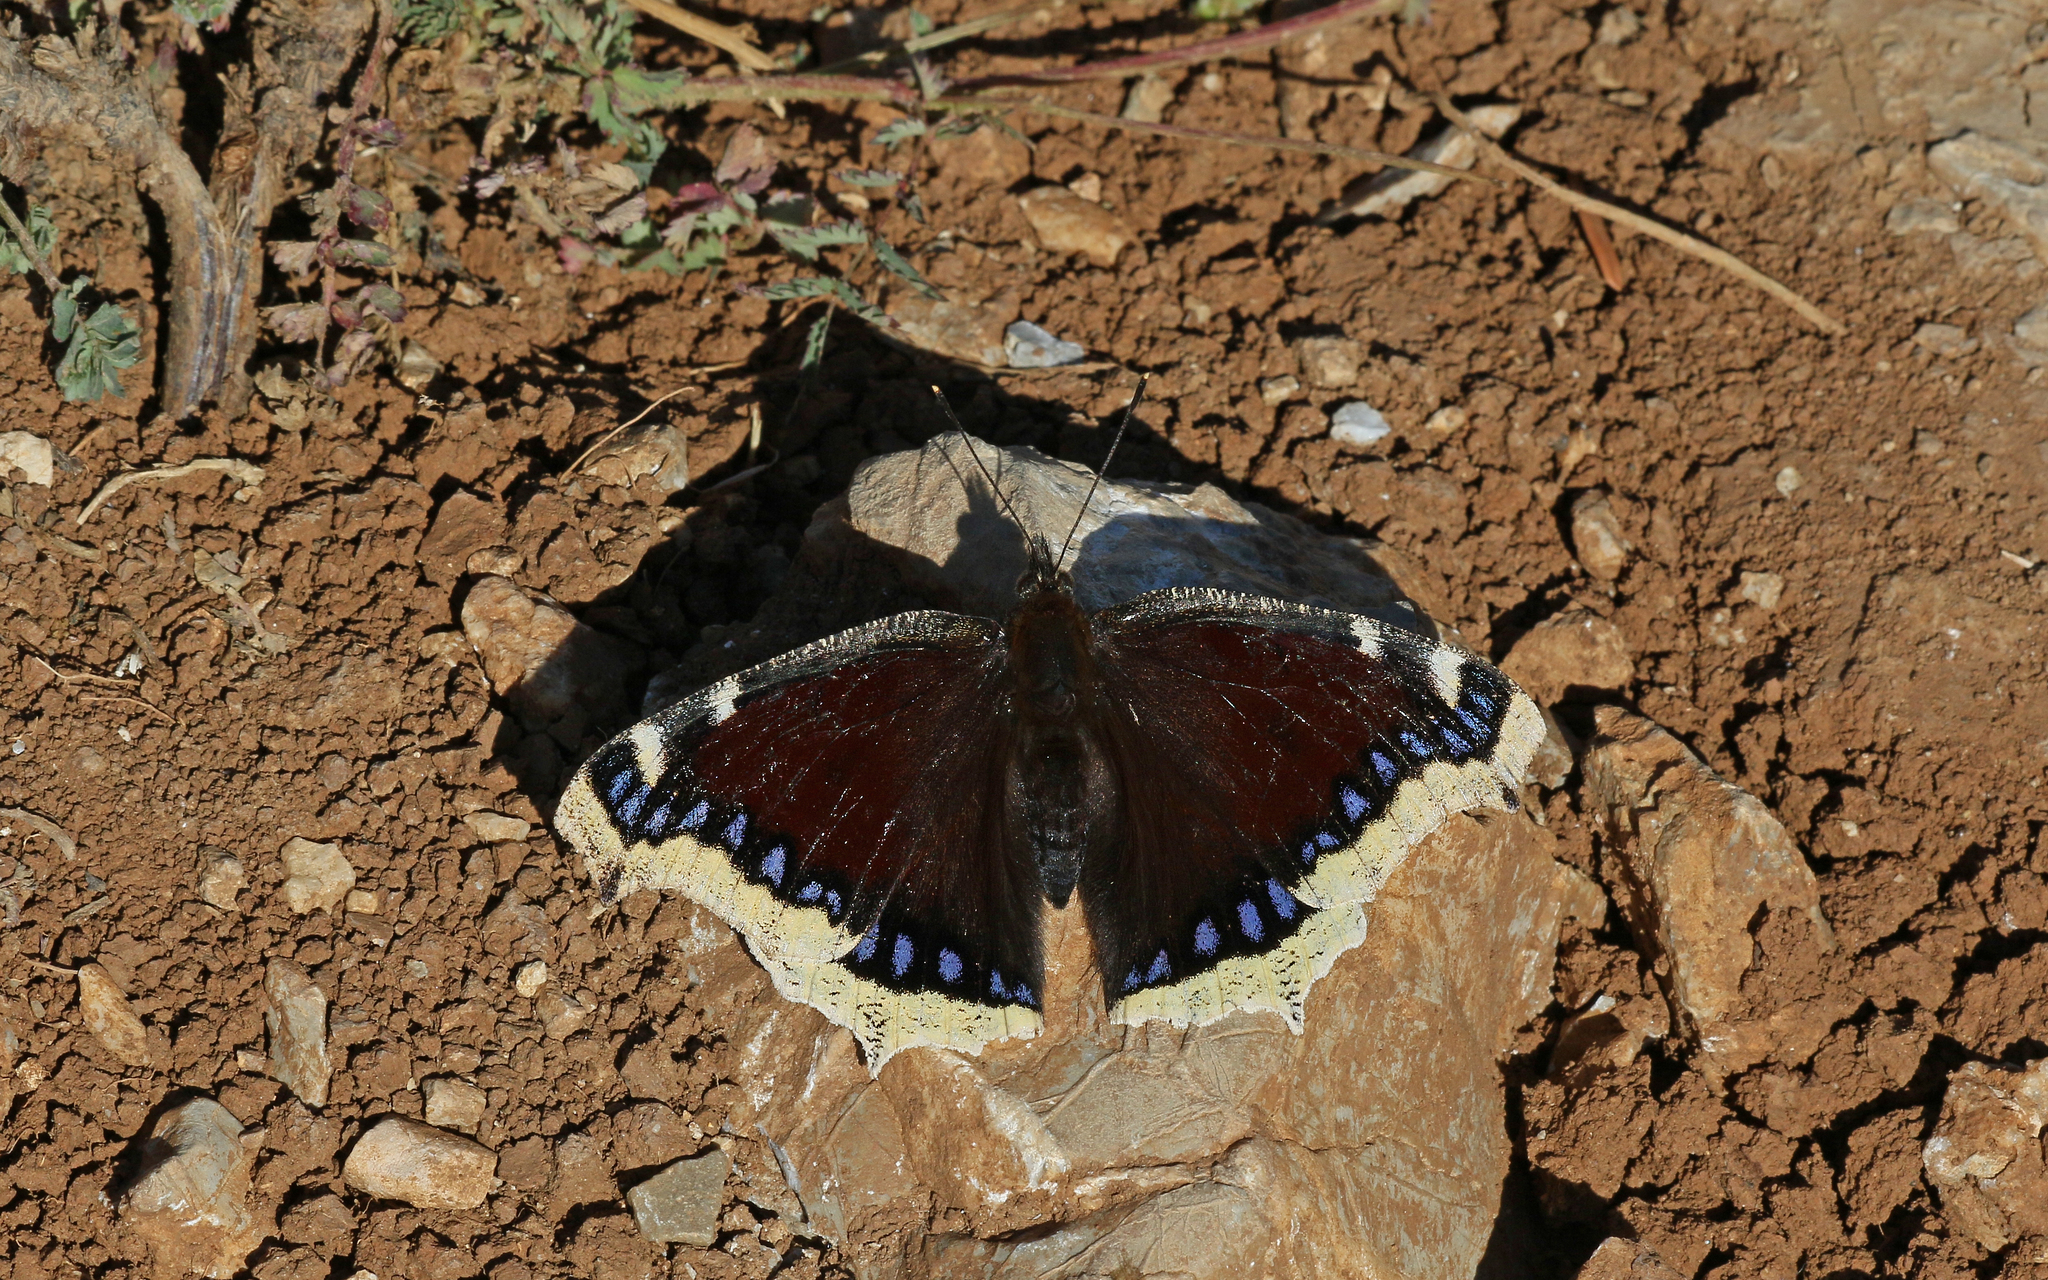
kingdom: Animalia
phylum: Arthropoda
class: Insecta
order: Lepidoptera
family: Nymphalidae
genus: Nymphalis
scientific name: Nymphalis antiopa
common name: Camberwell beauty
